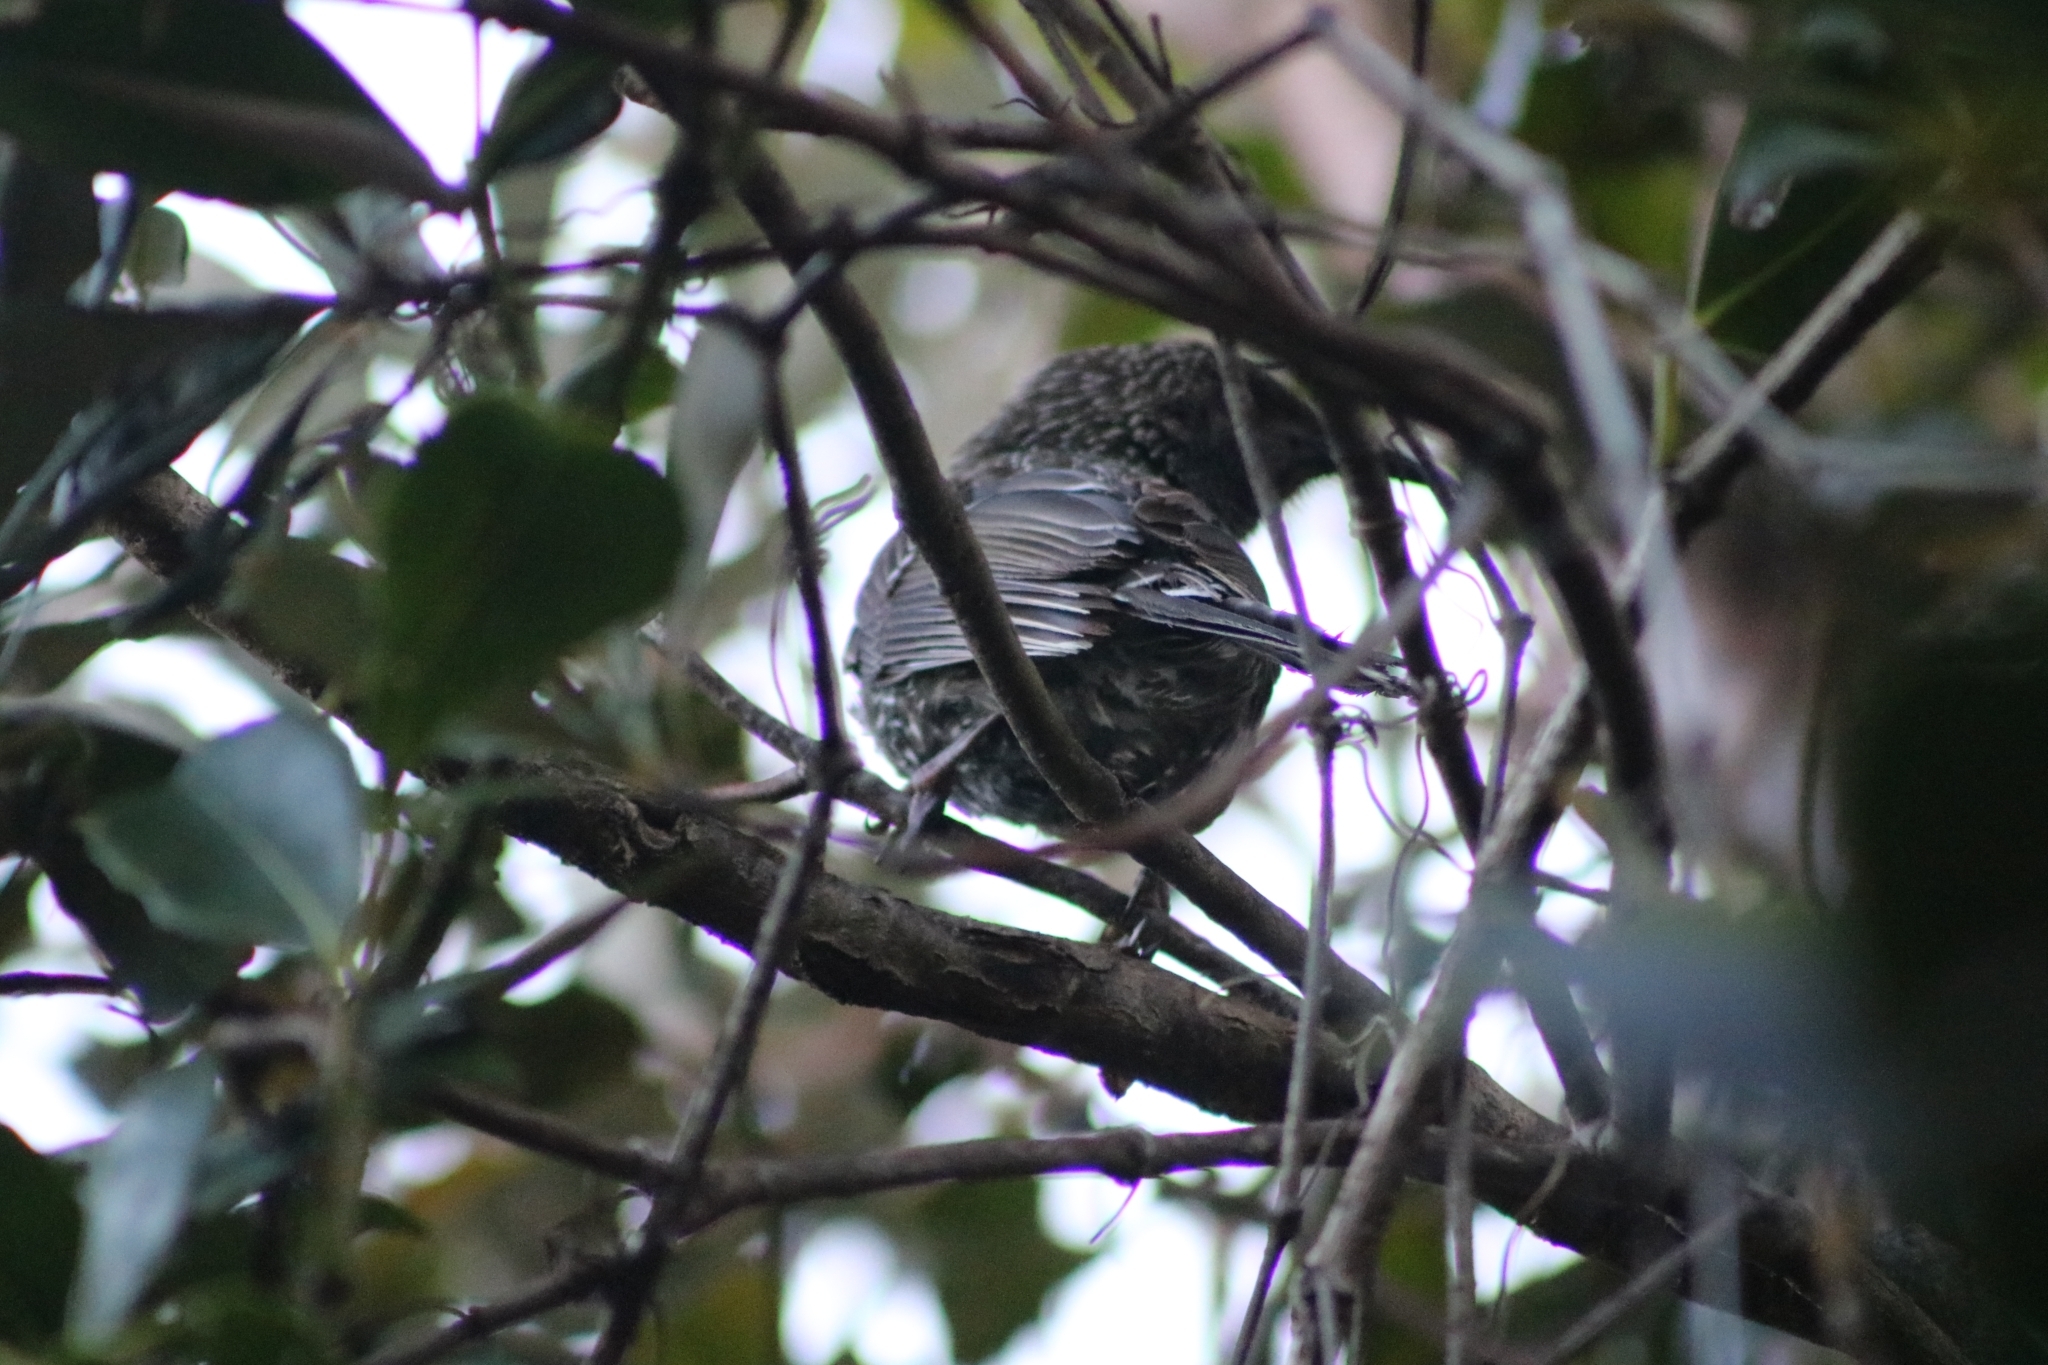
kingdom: Animalia
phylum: Chordata
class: Aves
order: Passeriformes
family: Meliphagidae
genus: Anthochaera
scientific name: Anthochaera chrysoptera
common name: Little wattlebird
